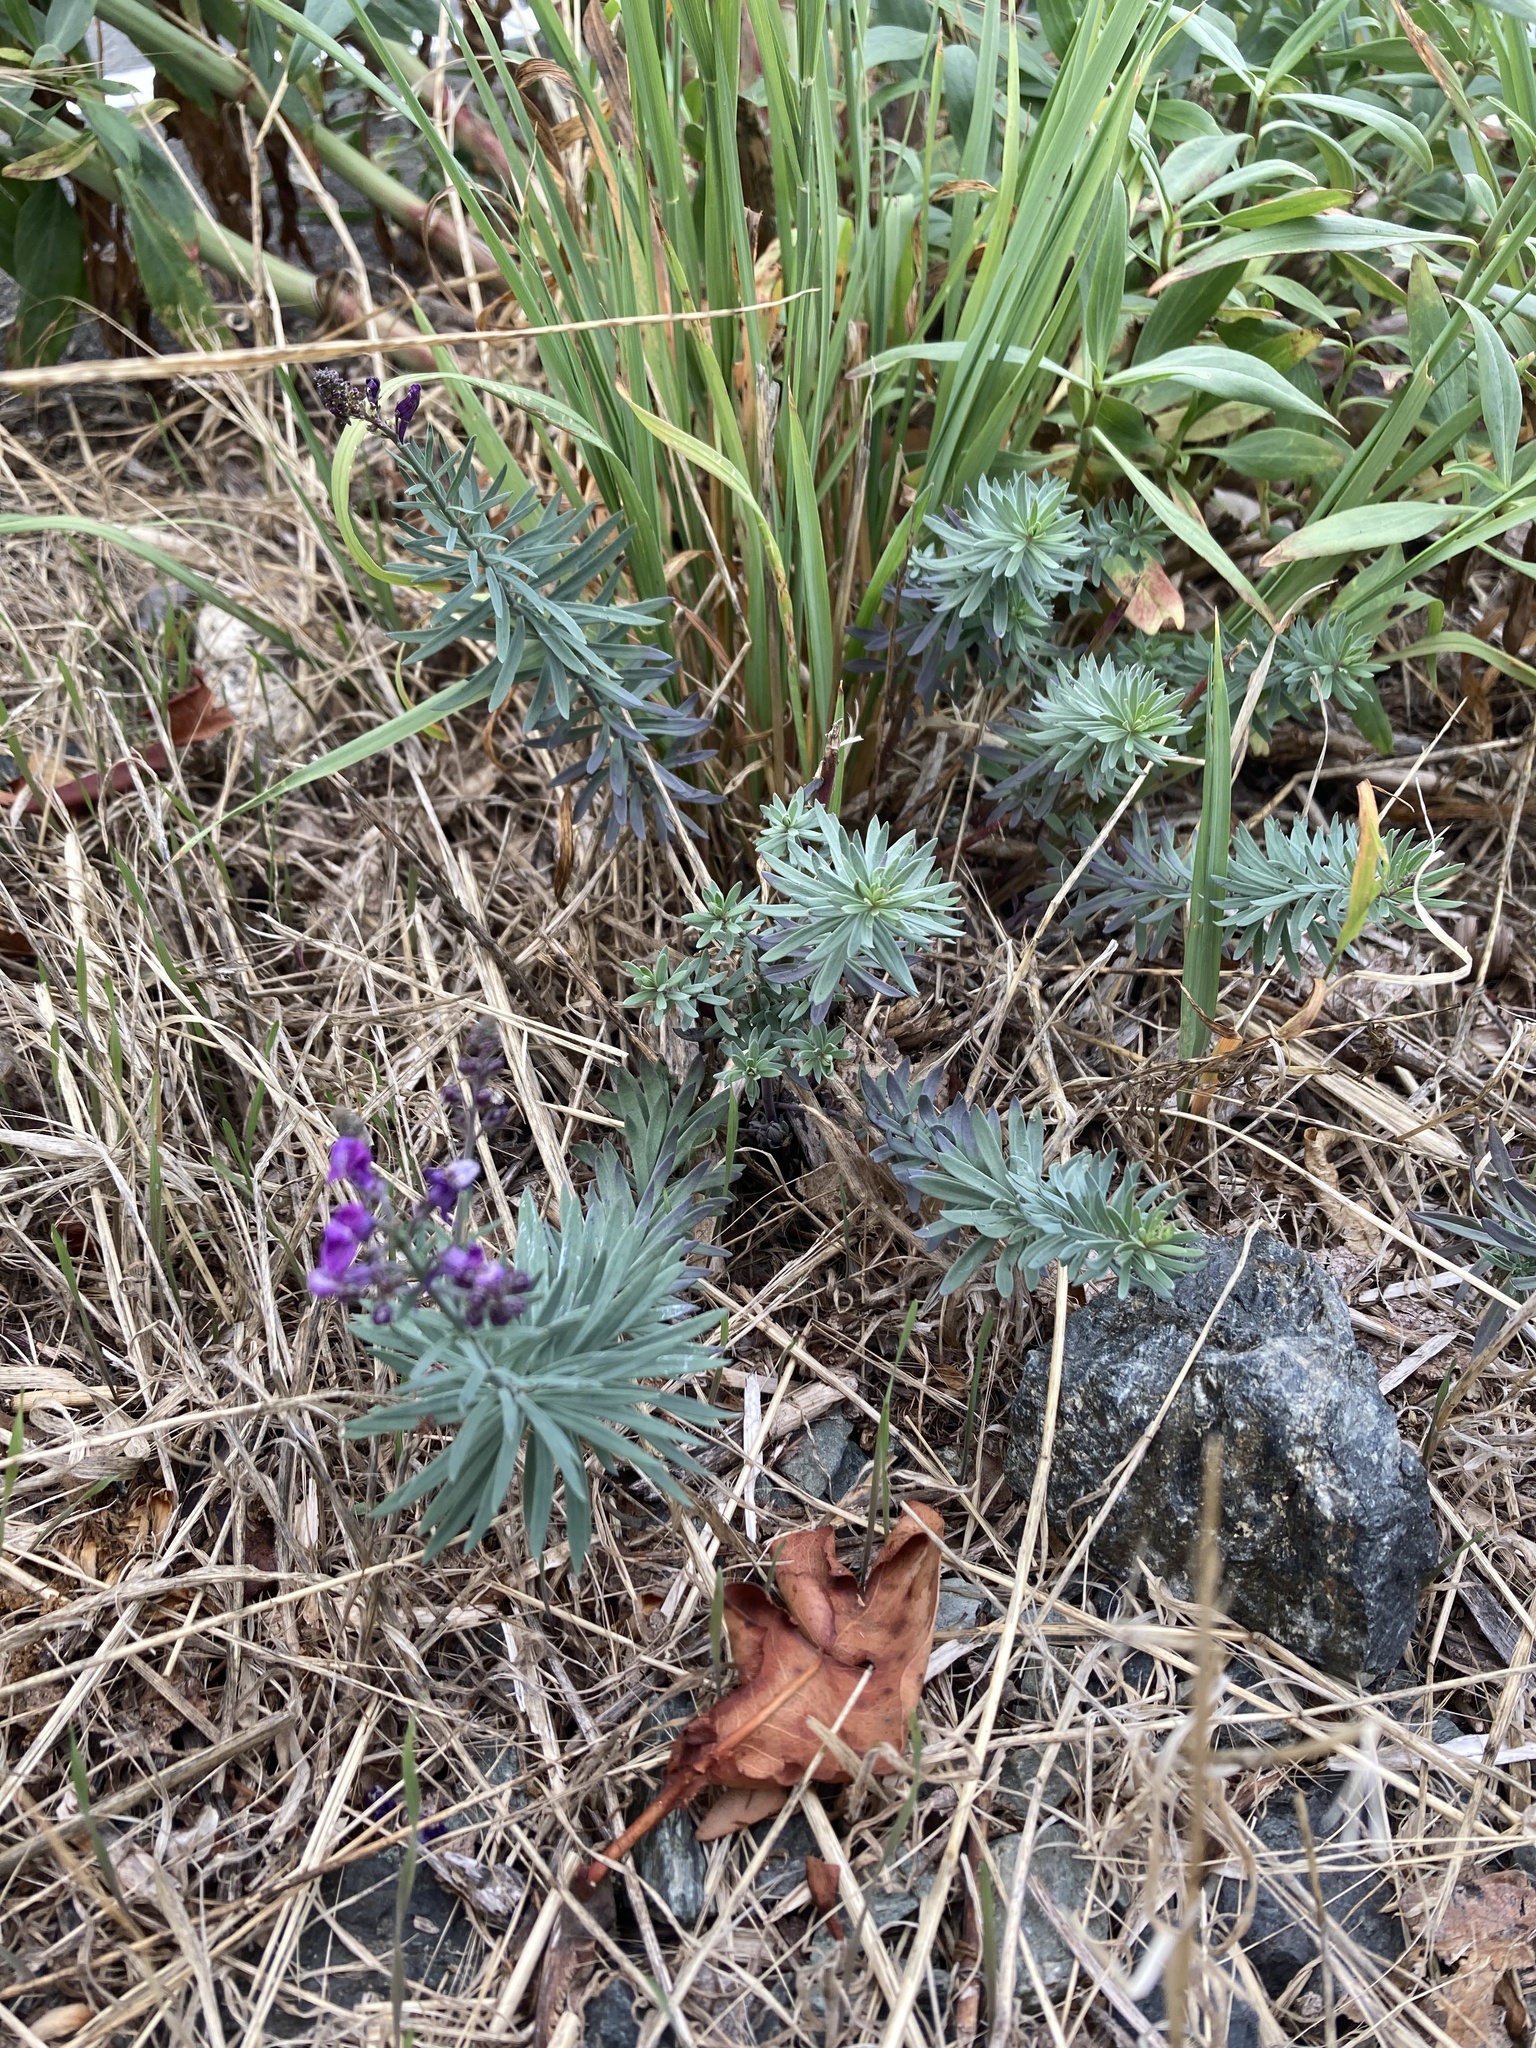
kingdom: Plantae
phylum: Tracheophyta
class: Magnoliopsida
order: Lamiales
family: Plantaginaceae
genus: Linaria
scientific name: Linaria purpurea
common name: Purple toadflax
